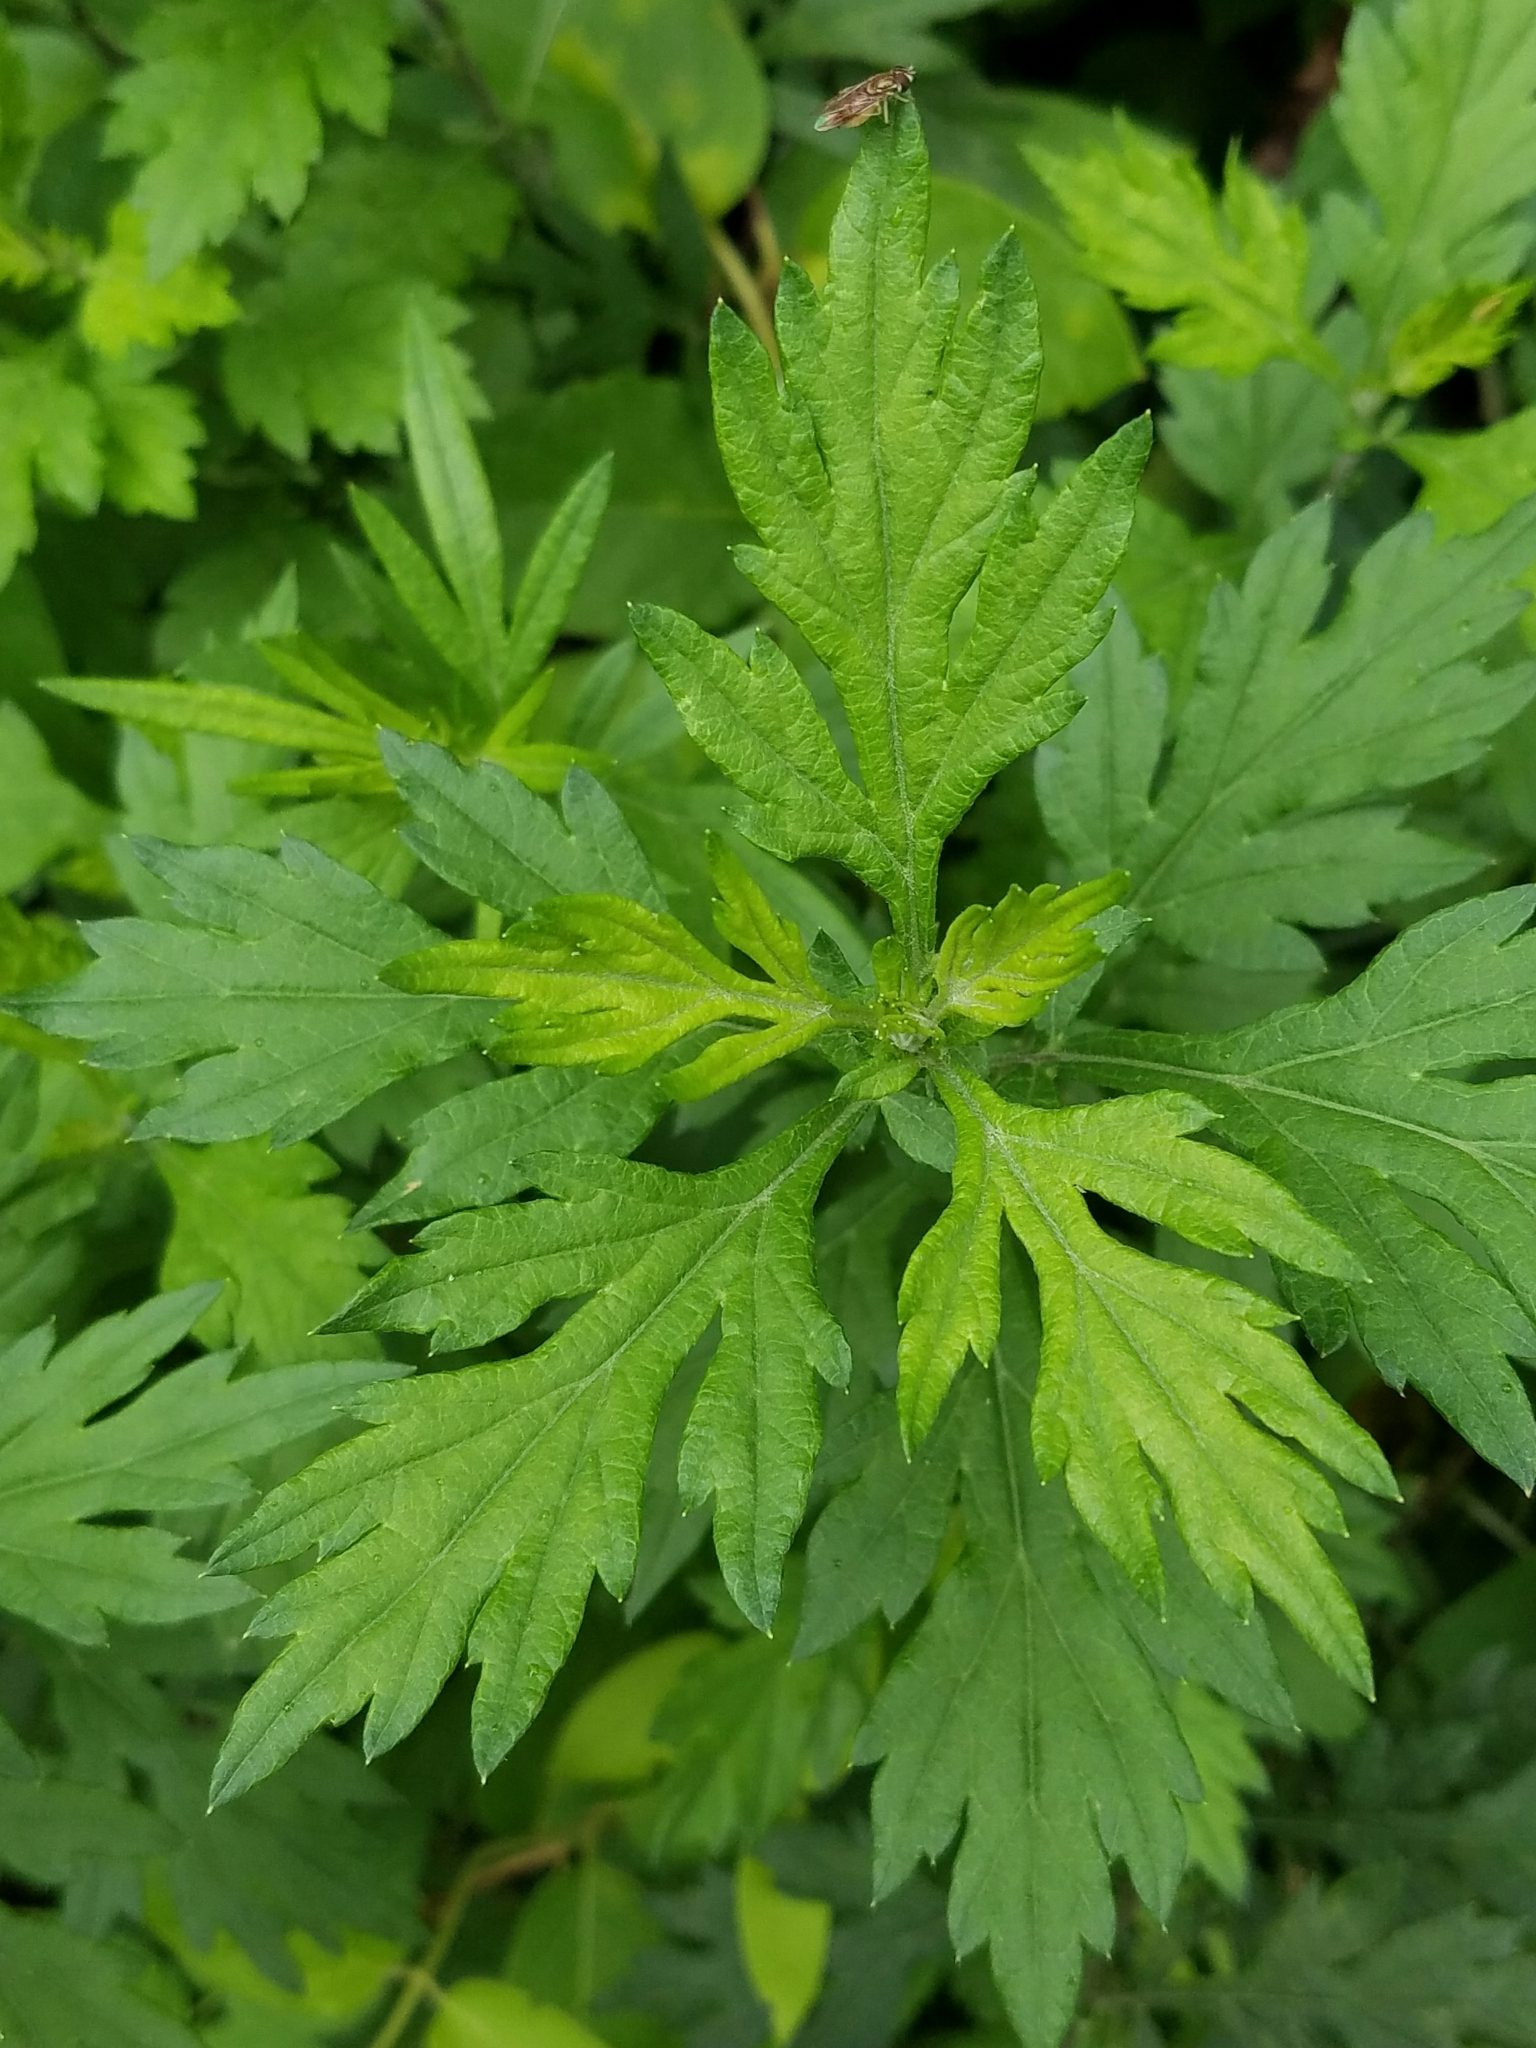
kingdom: Plantae
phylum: Tracheophyta
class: Magnoliopsida
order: Asterales
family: Asteraceae
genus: Artemisia
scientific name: Artemisia vulgaris
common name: Mugwort
